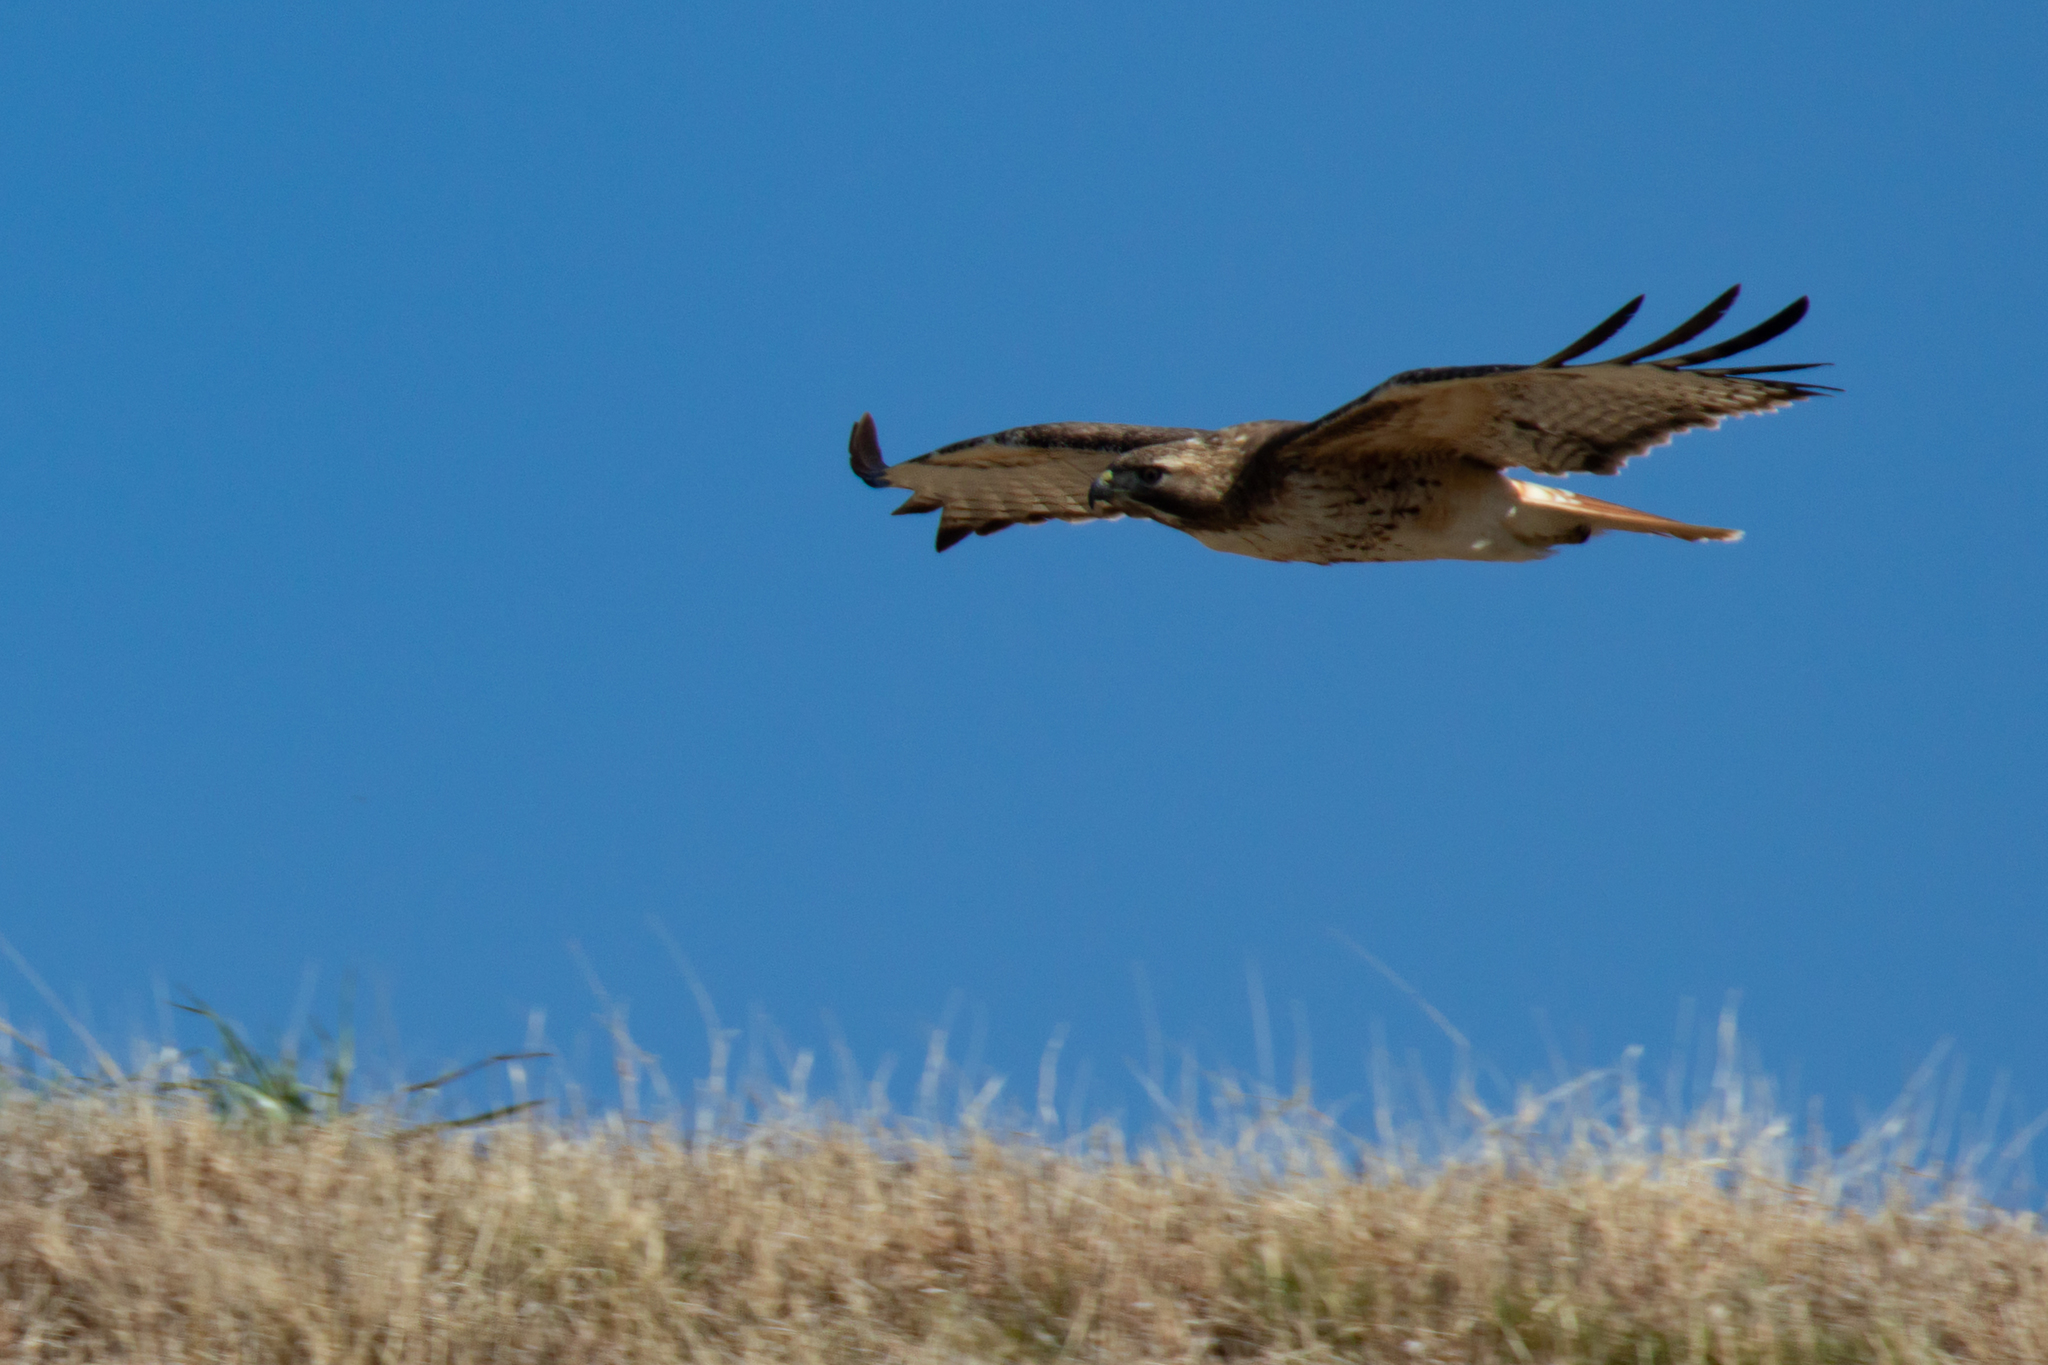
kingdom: Animalia
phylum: Chordata
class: Aves
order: Accipitriformes
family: Accipitridae
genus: Buteo
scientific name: Buteo jamaicensis
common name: Red-tailed hawk
